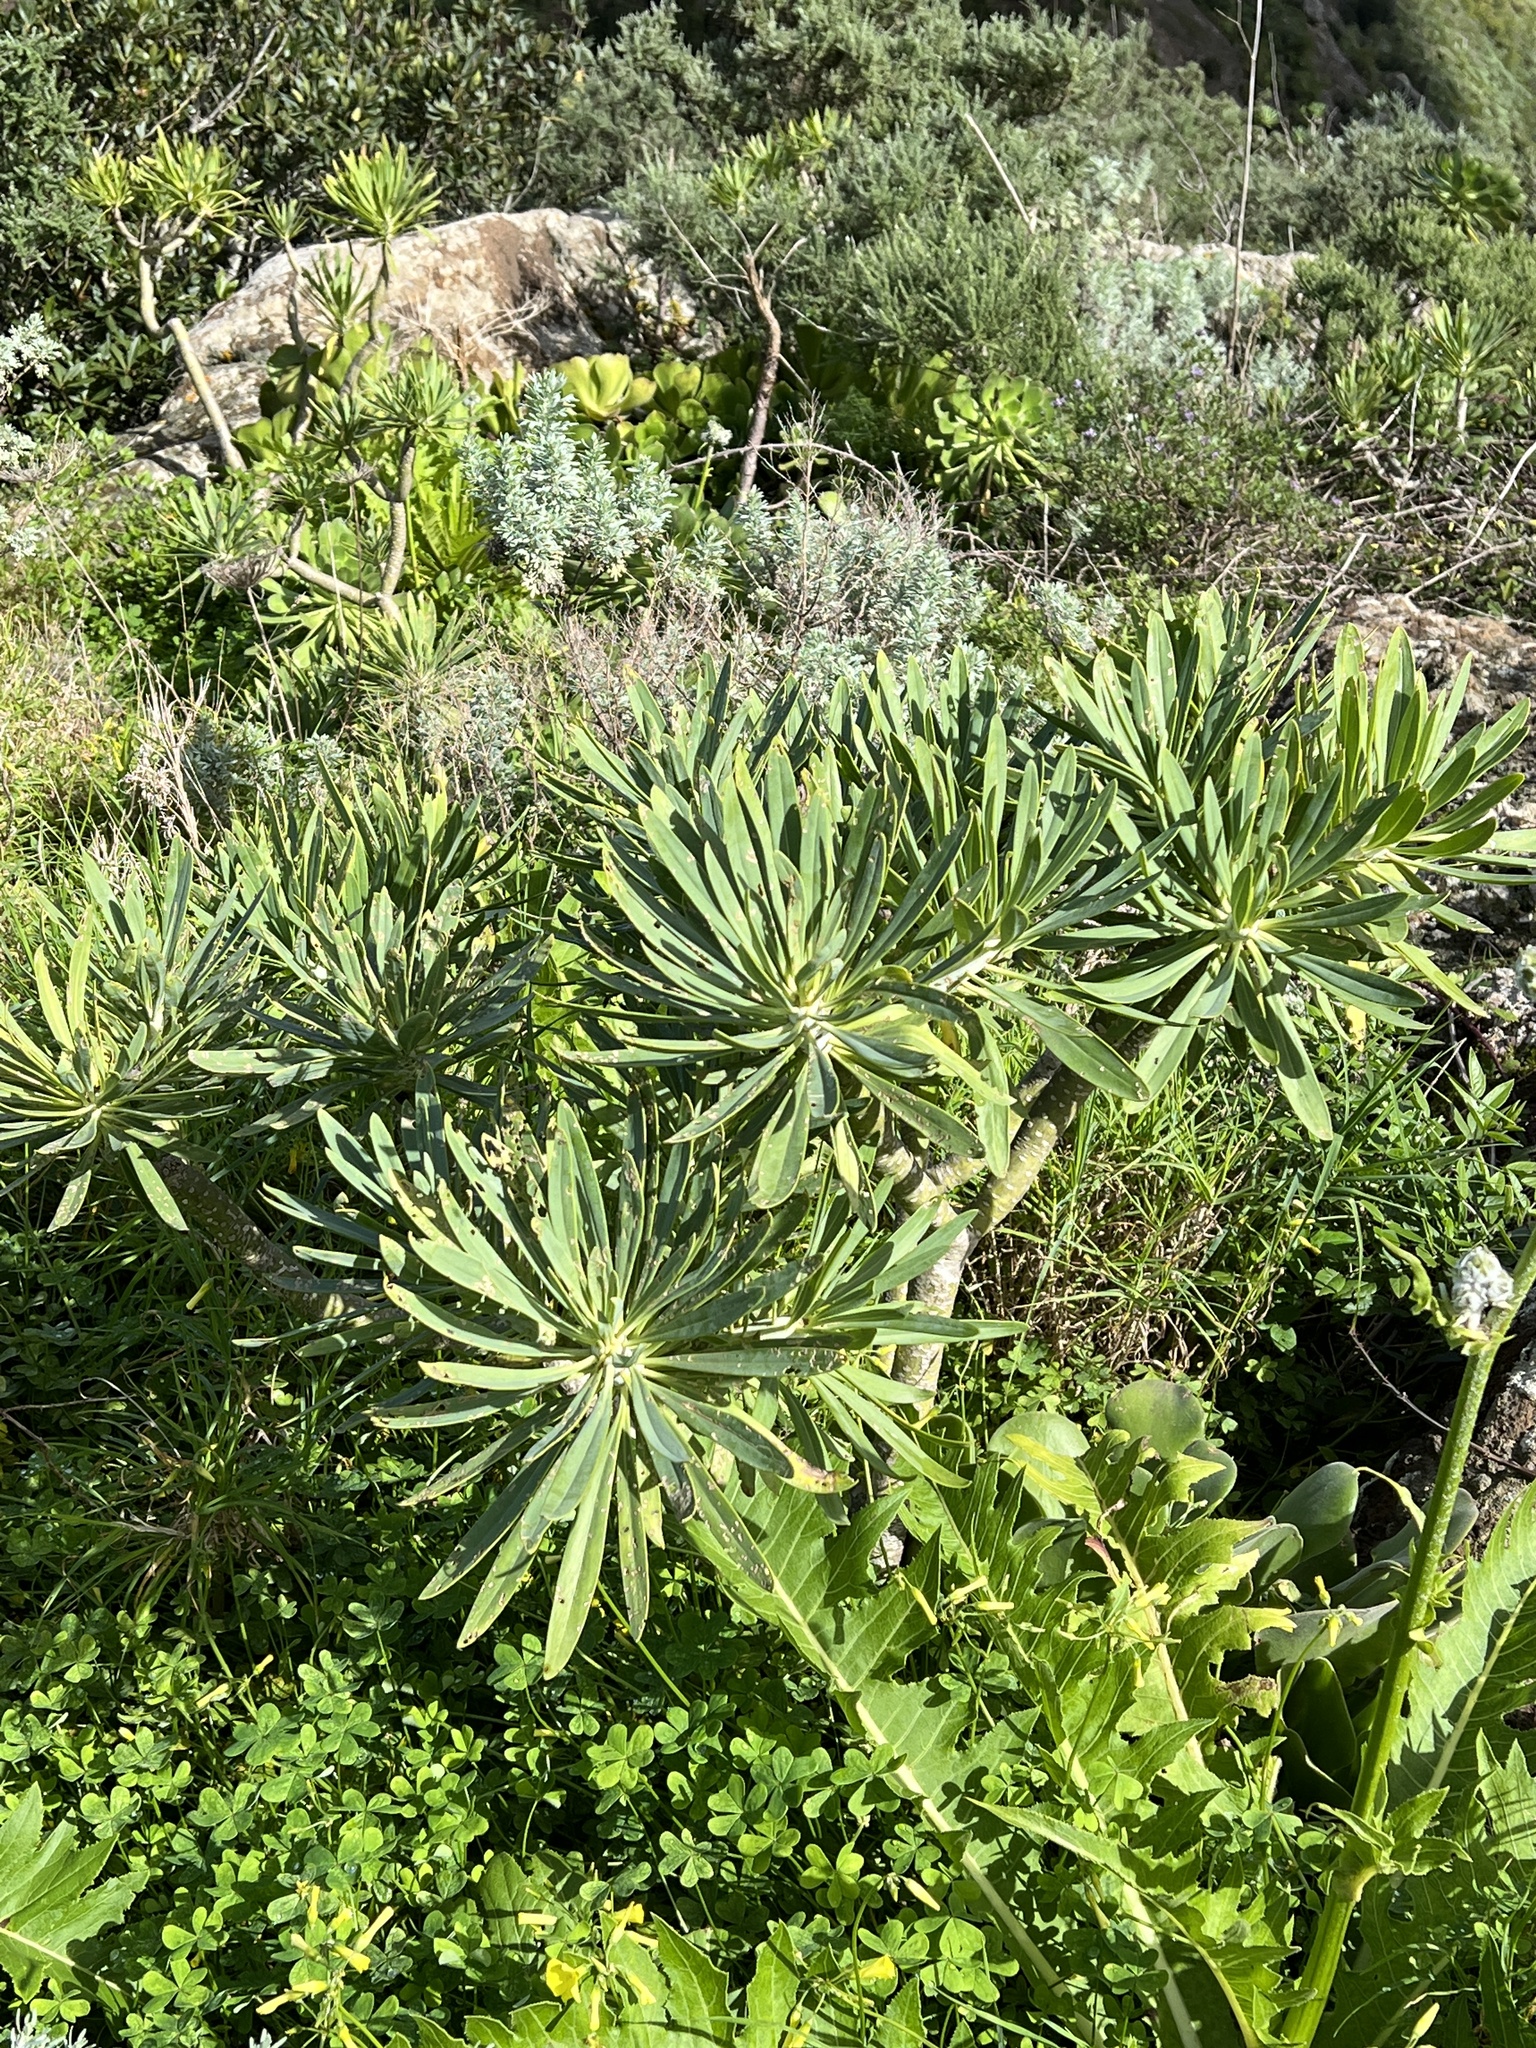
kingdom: Plantae
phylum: Tracheophyta
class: Magnoliopsida
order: Asterales
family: Asteraceae
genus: Kleinia
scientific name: Kleinia neriifolia
